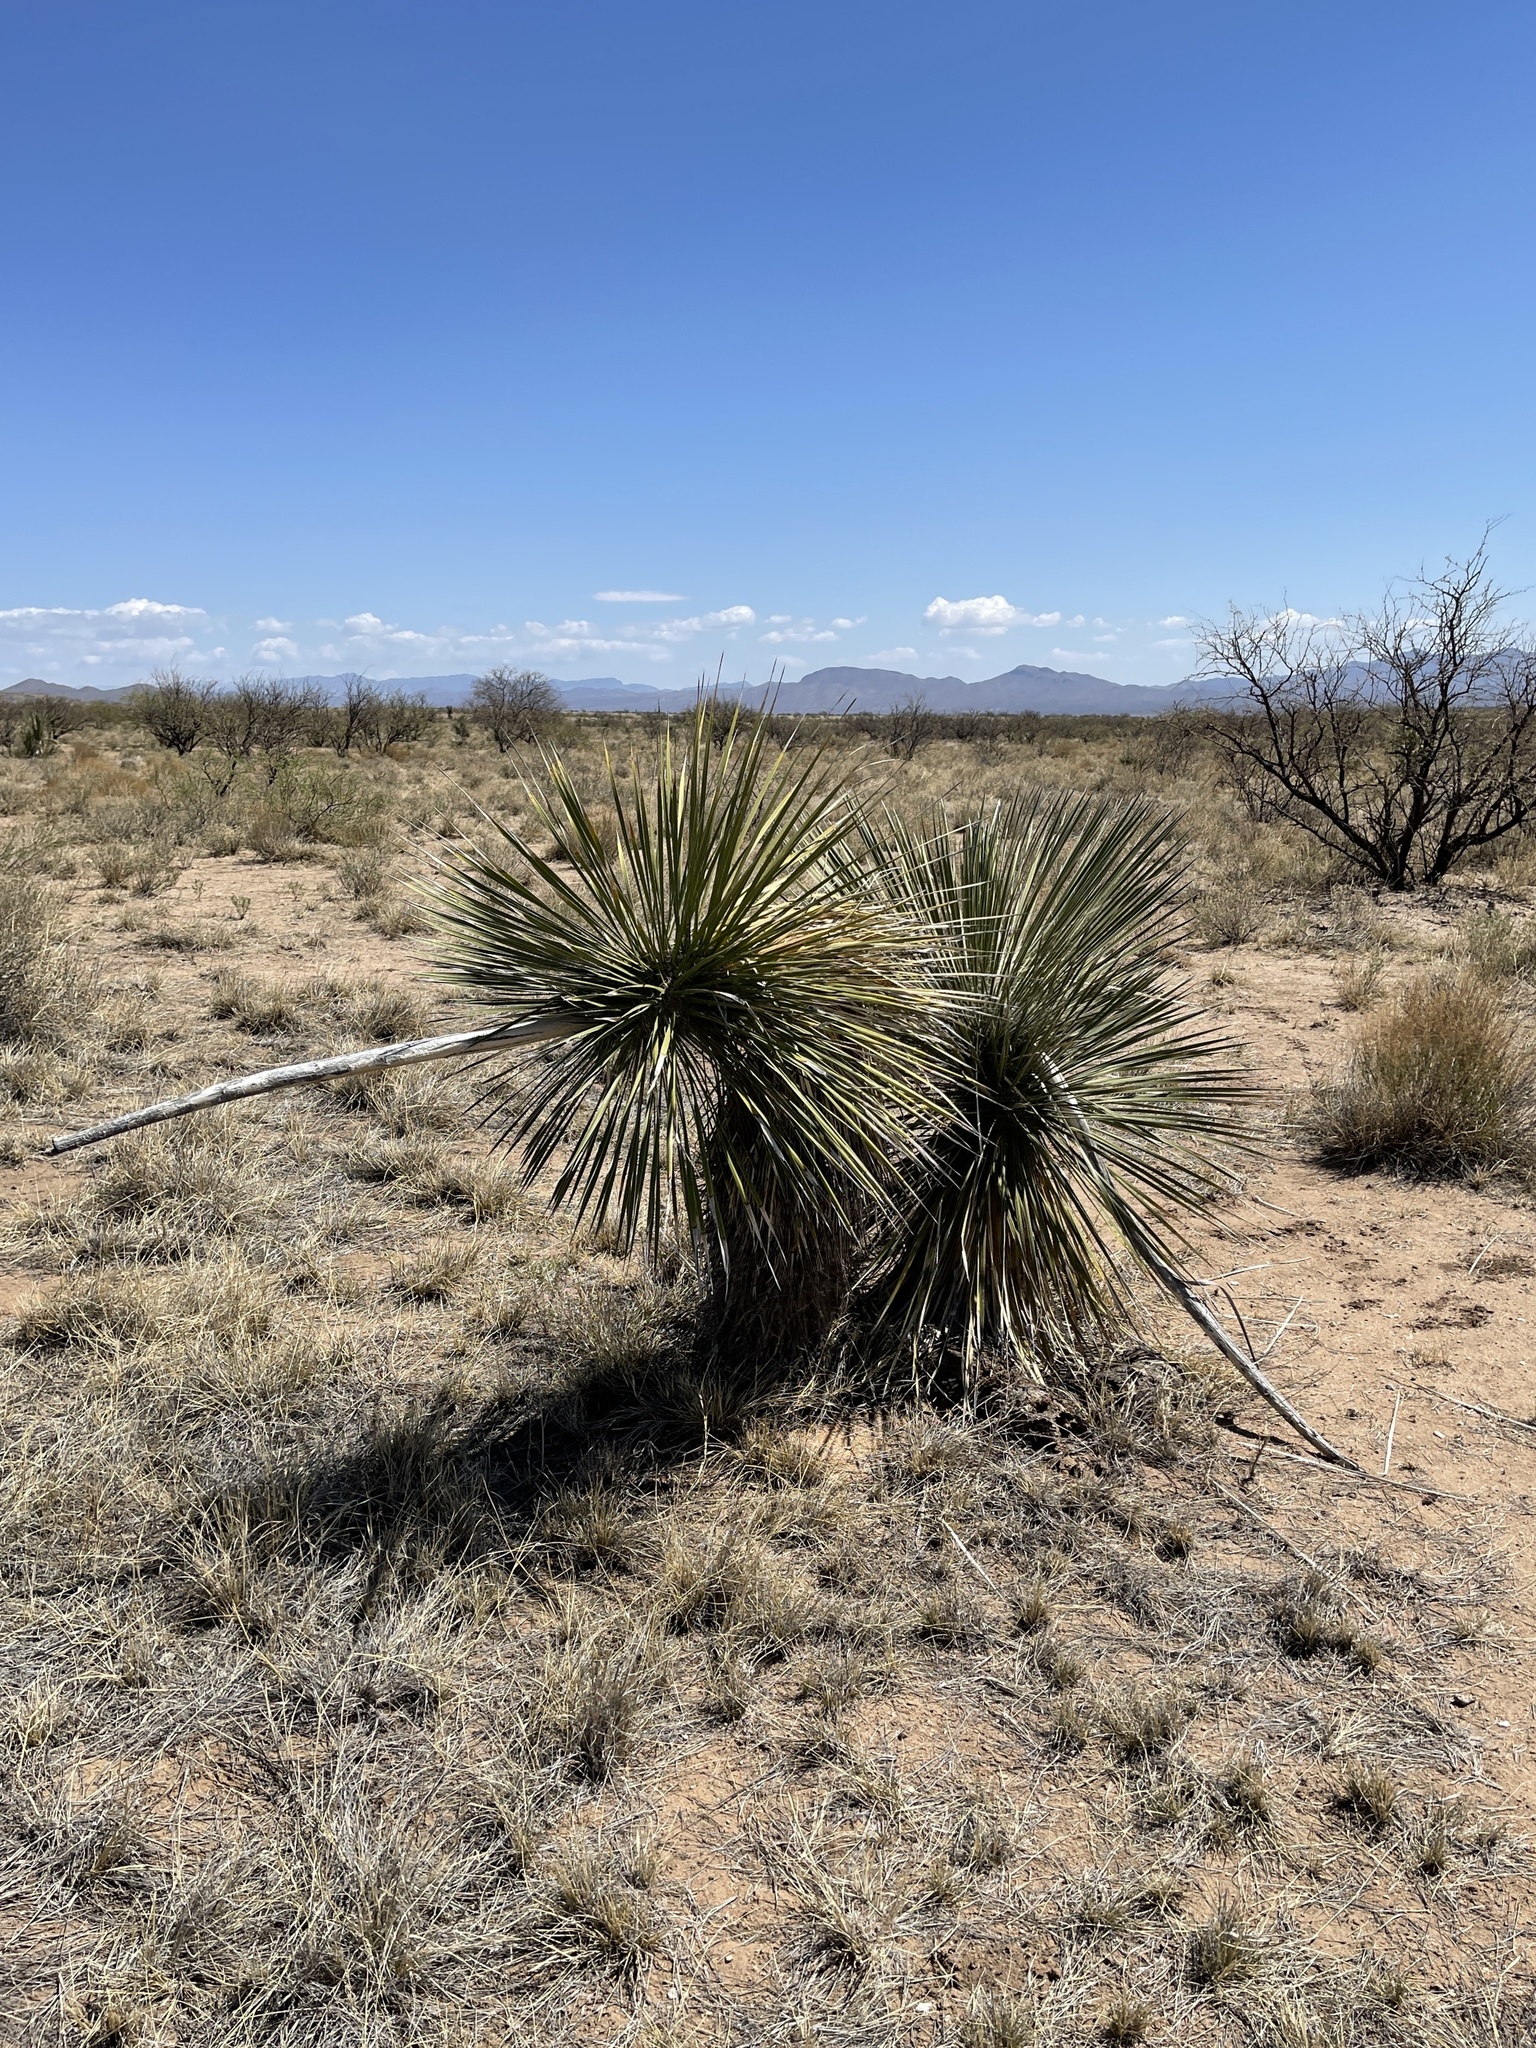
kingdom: Plantae
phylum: Tracheophyta
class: Liliopsida
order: Asparagales
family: Asparagaceae
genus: Yucca
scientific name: Yucca elata
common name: Palmella
